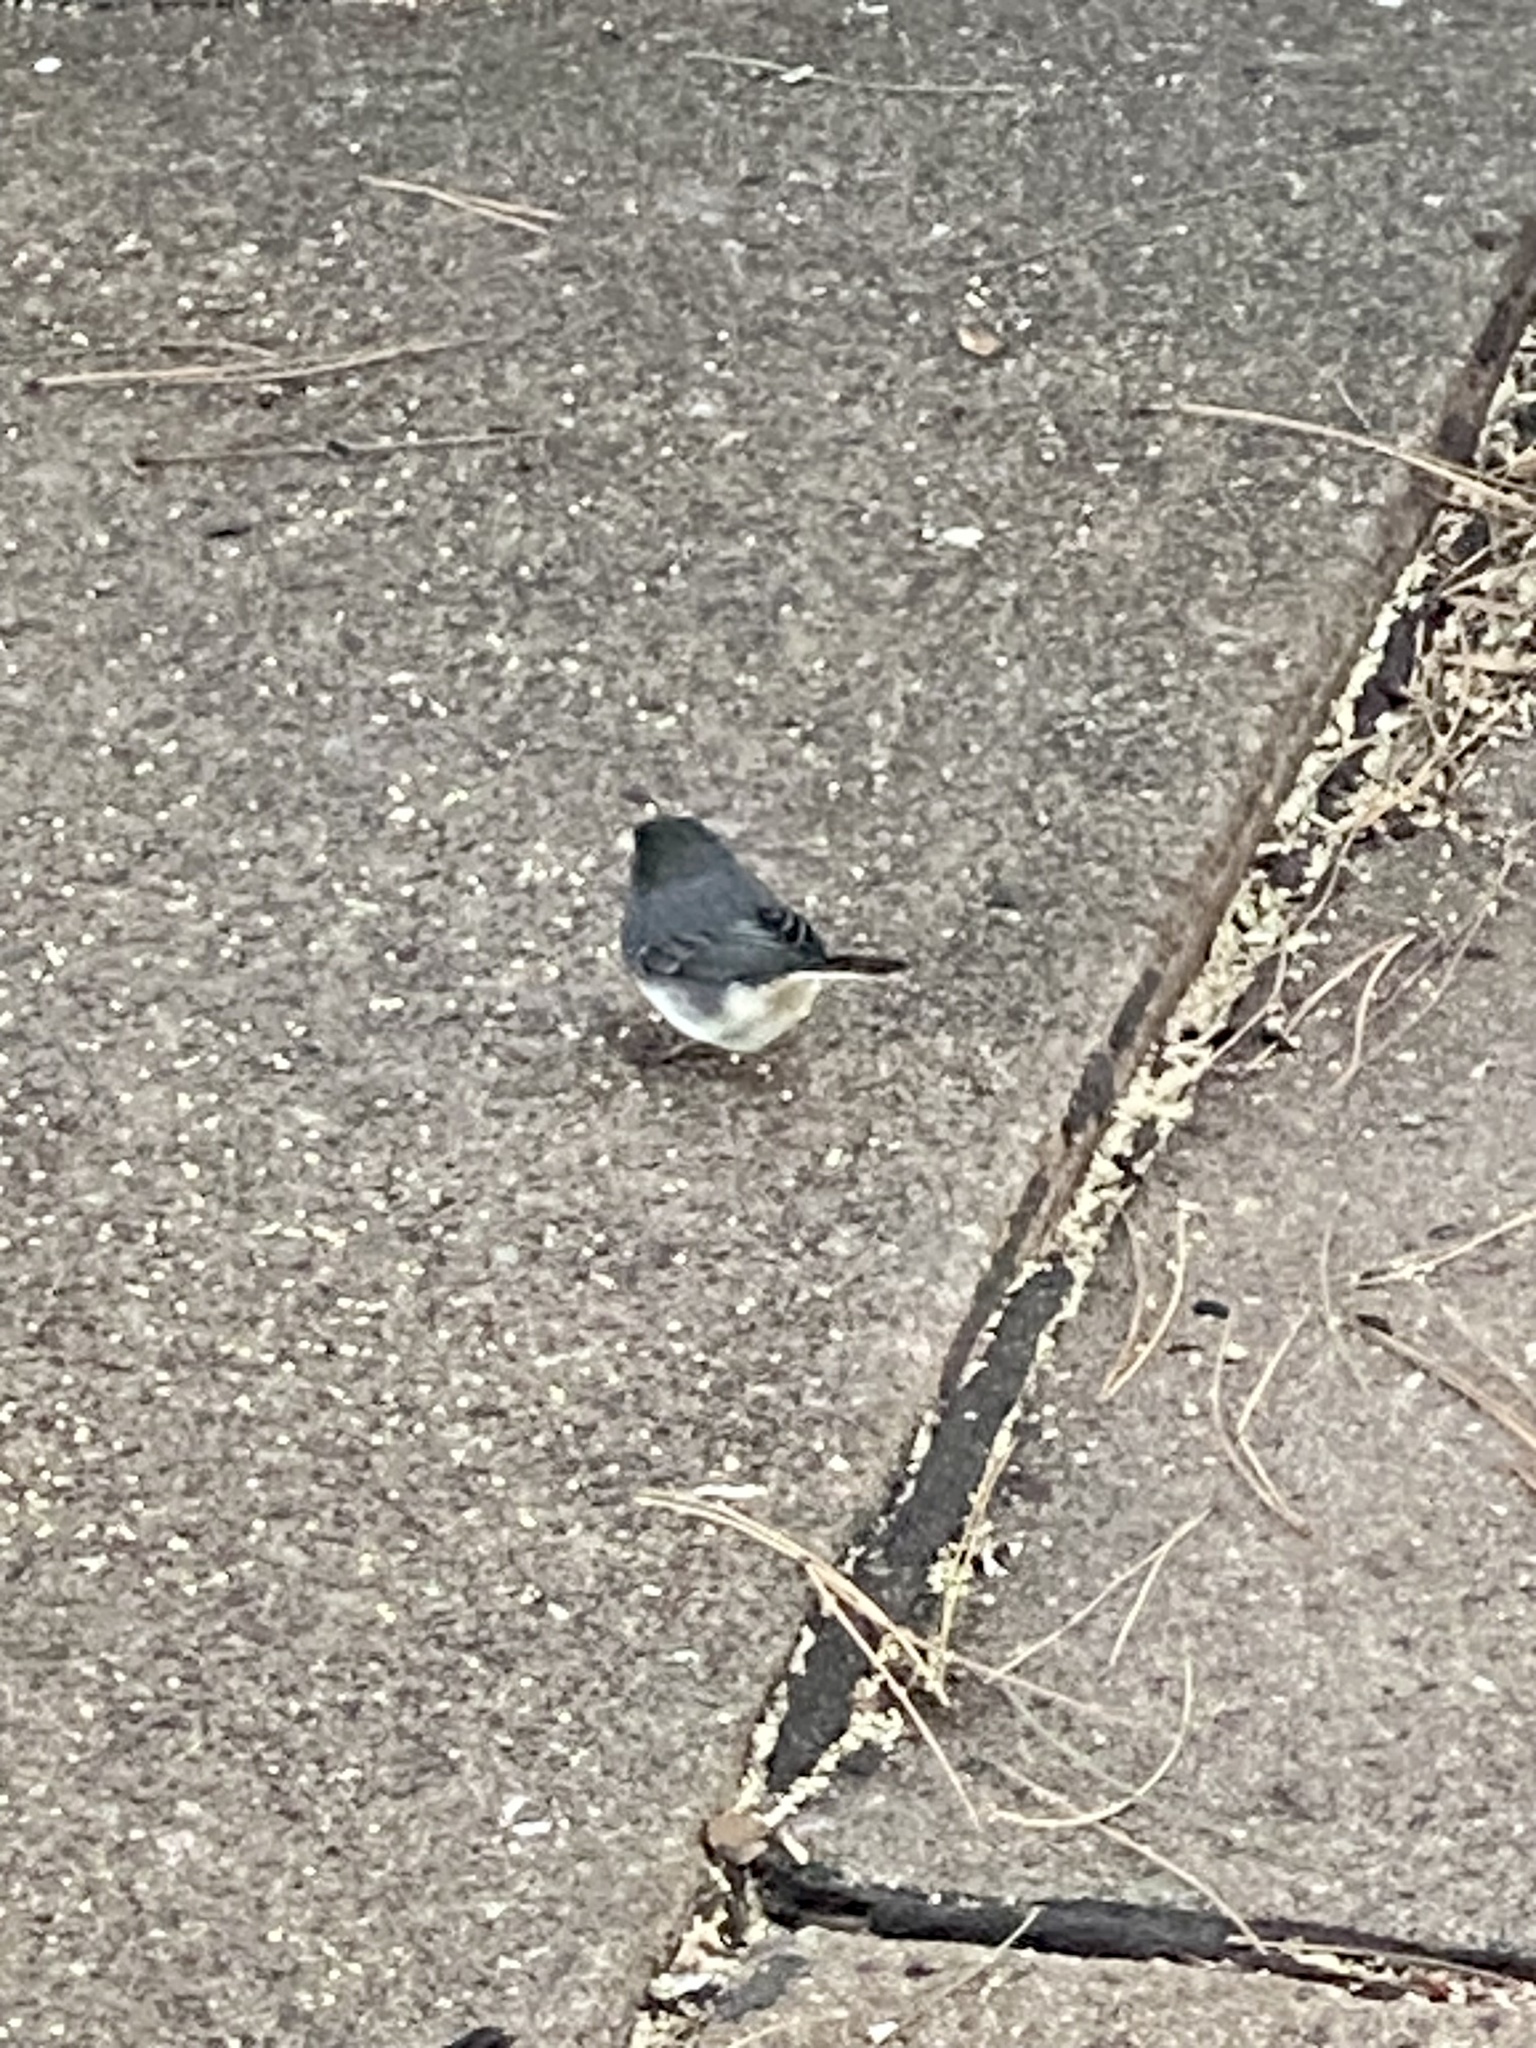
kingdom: Animalia
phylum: Chordata
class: Aves
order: Passeriformes
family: Passerellidae
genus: Junco
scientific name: Junco hyemalis
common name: Dark-eyed junco
